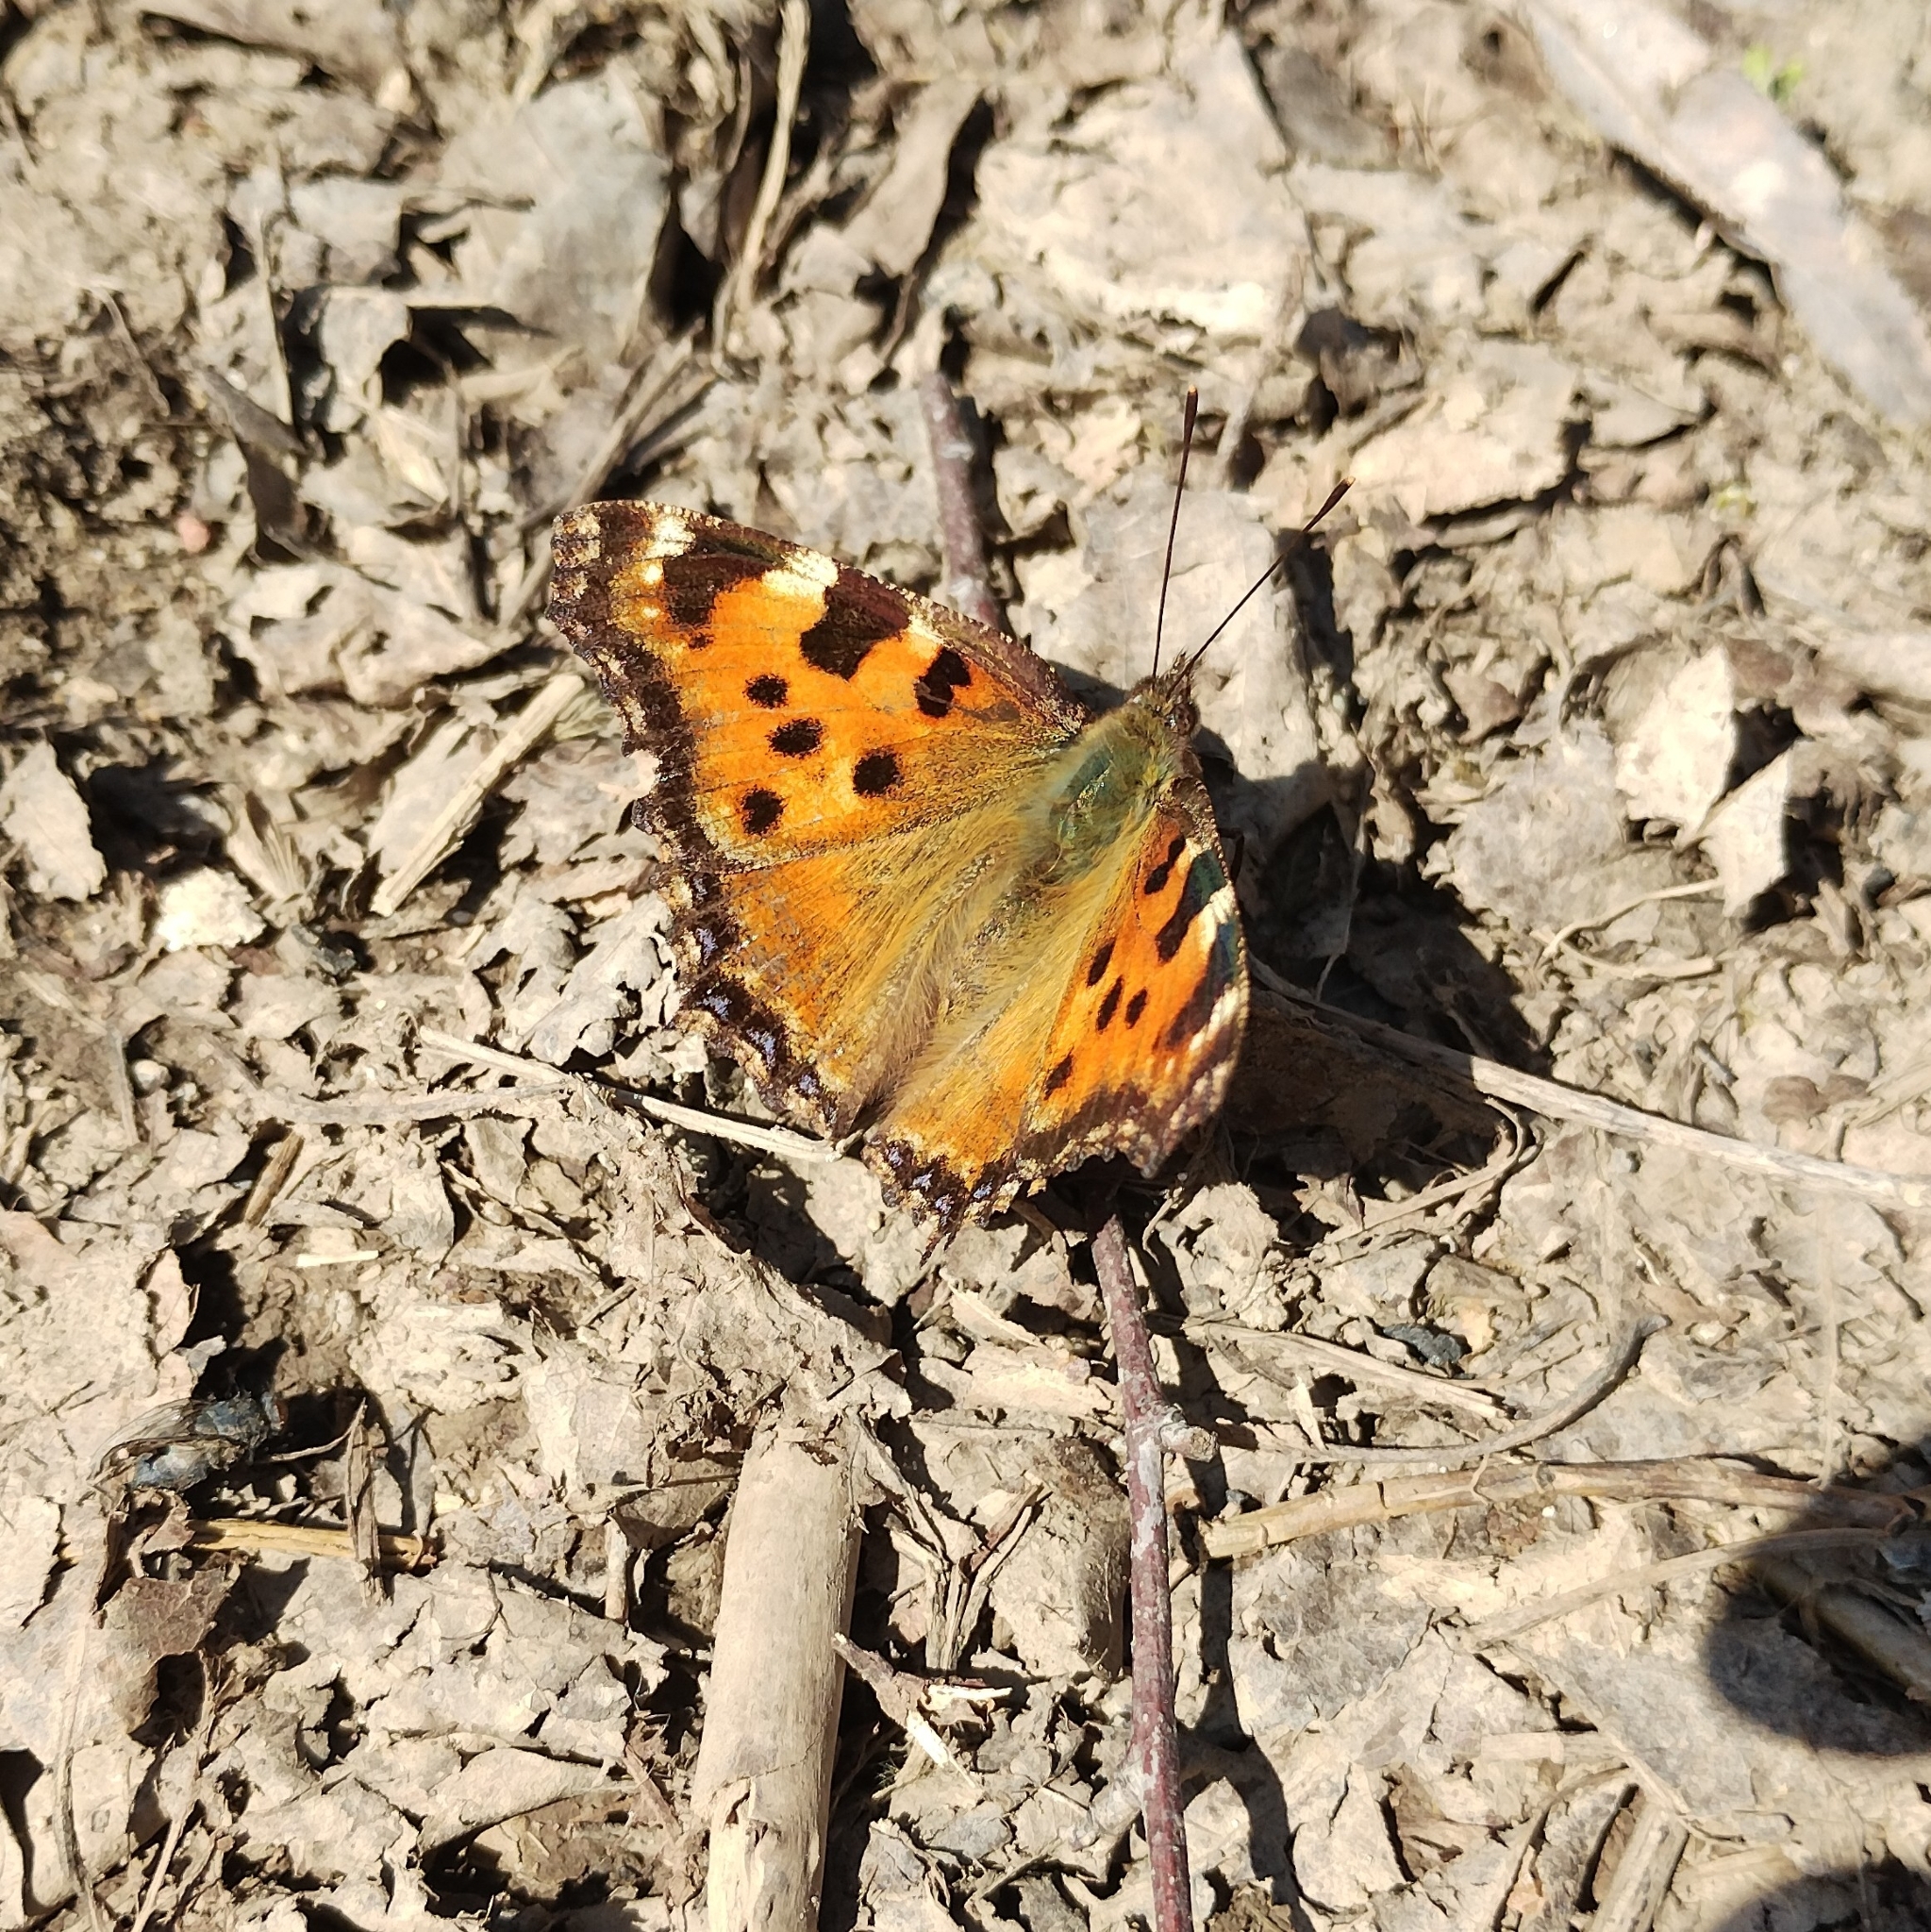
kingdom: Animalia
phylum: Arthropoda
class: Insecta
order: Lepidoptera
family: Nymphalidae
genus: Nymphalis
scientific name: Nymphalis polychloros
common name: Large tortoiseshell
